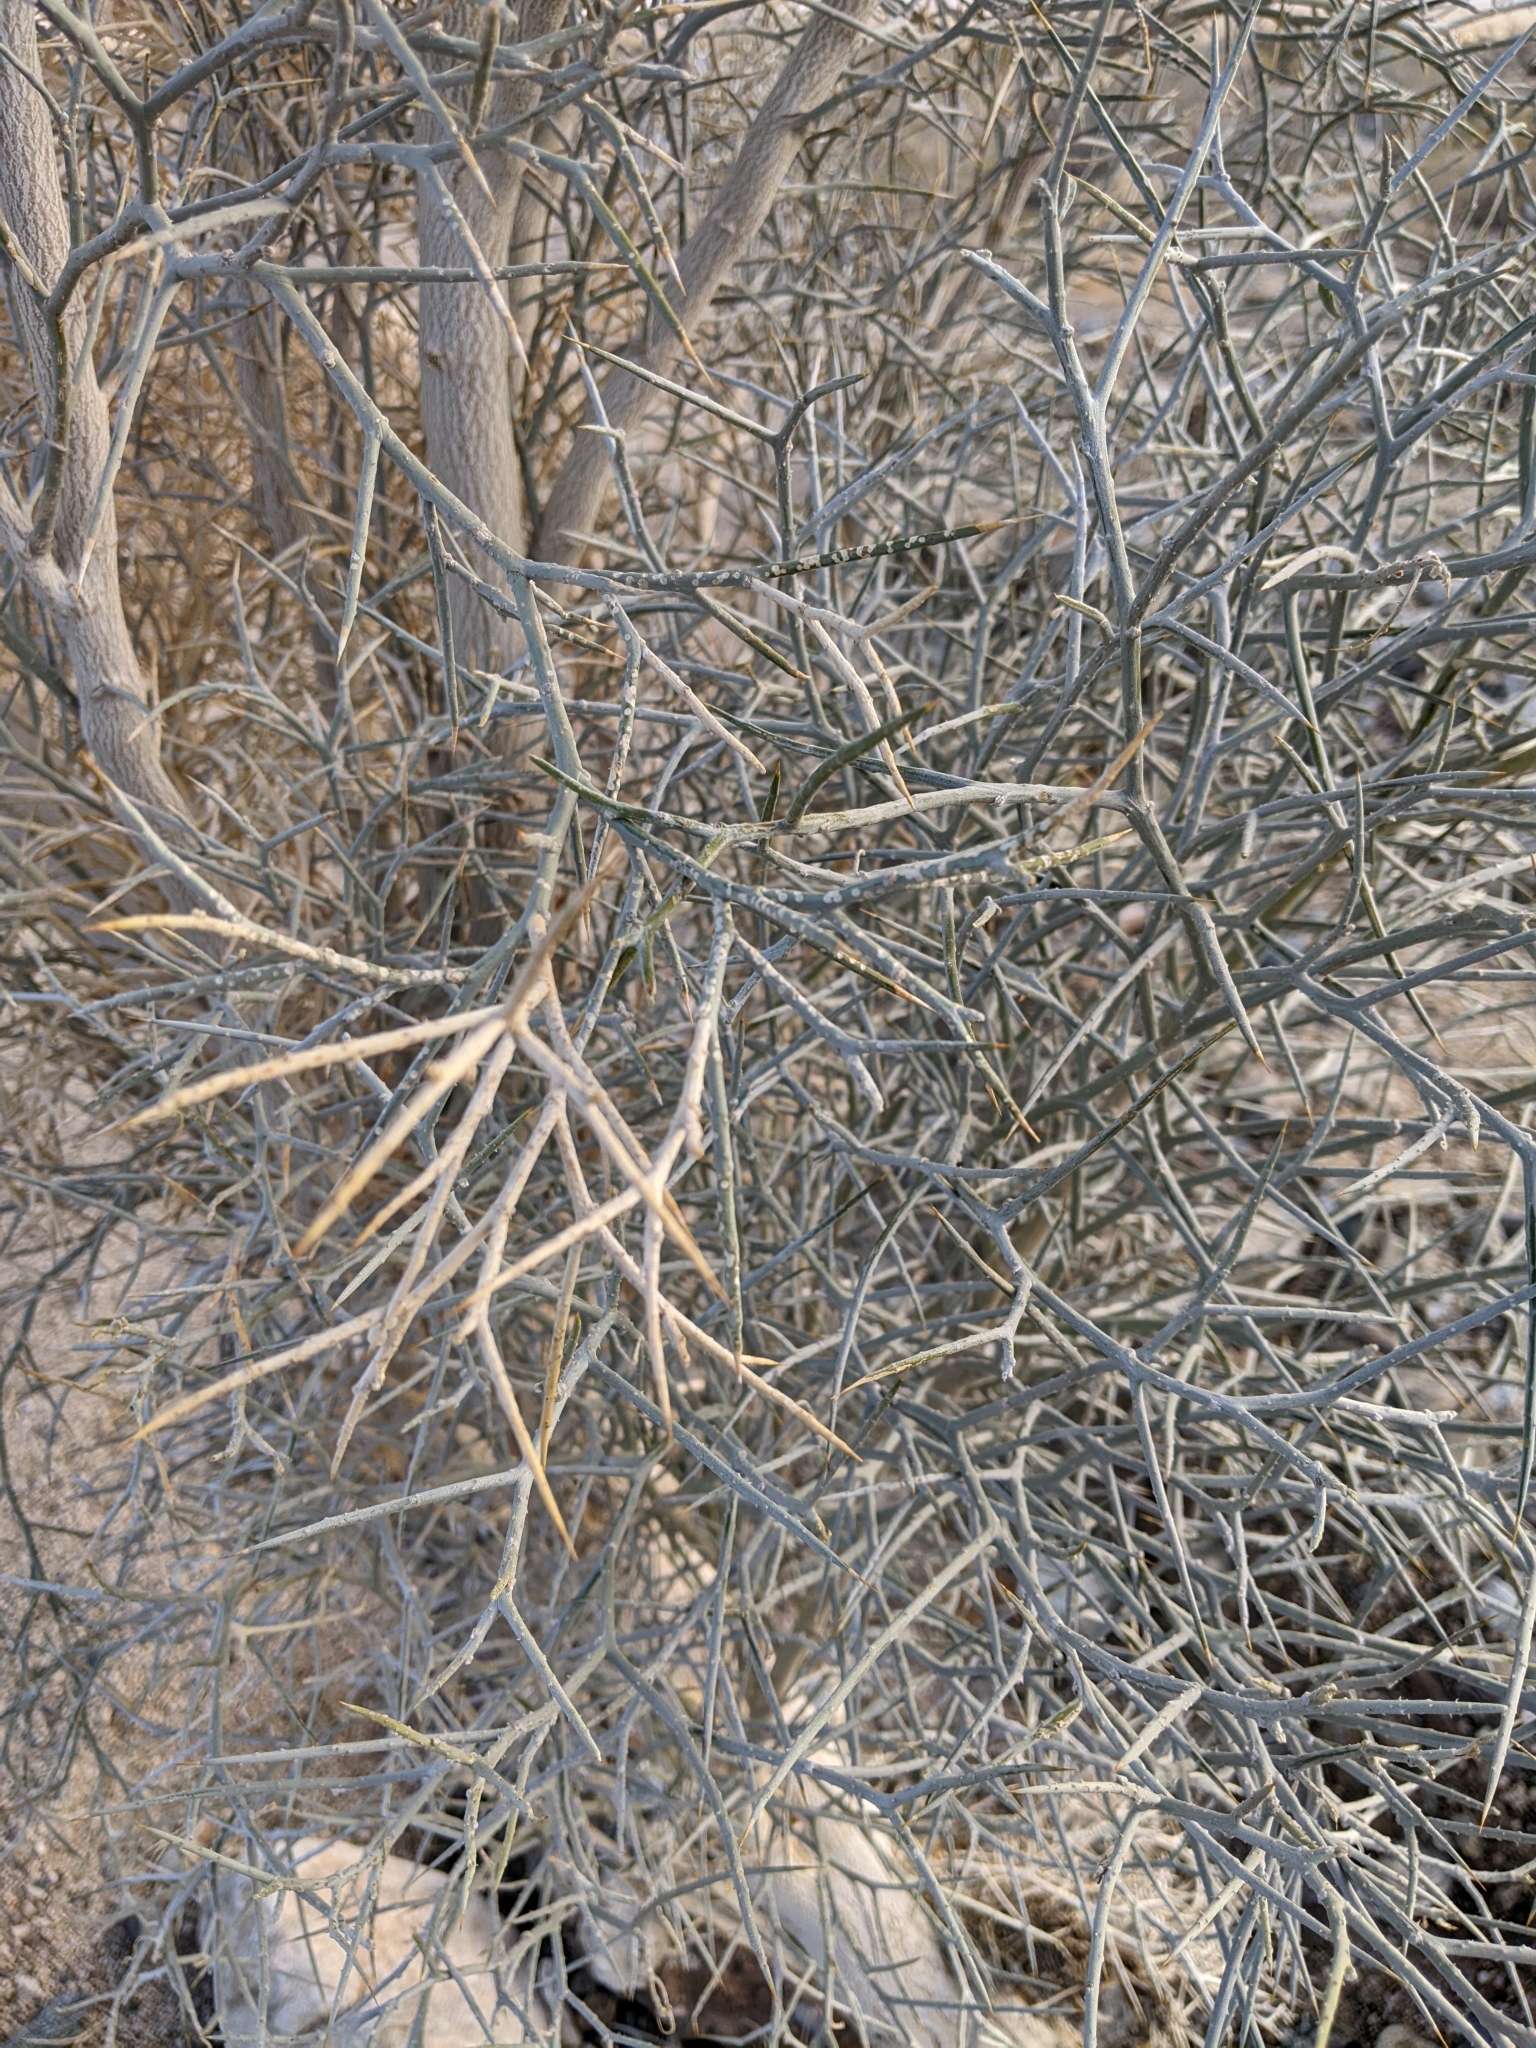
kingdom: Plantae
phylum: Tracheophyta
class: Magnoliopsida
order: Fabales
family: Fabaceae
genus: Psorothamnus
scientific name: Psorothamnus spinosus
